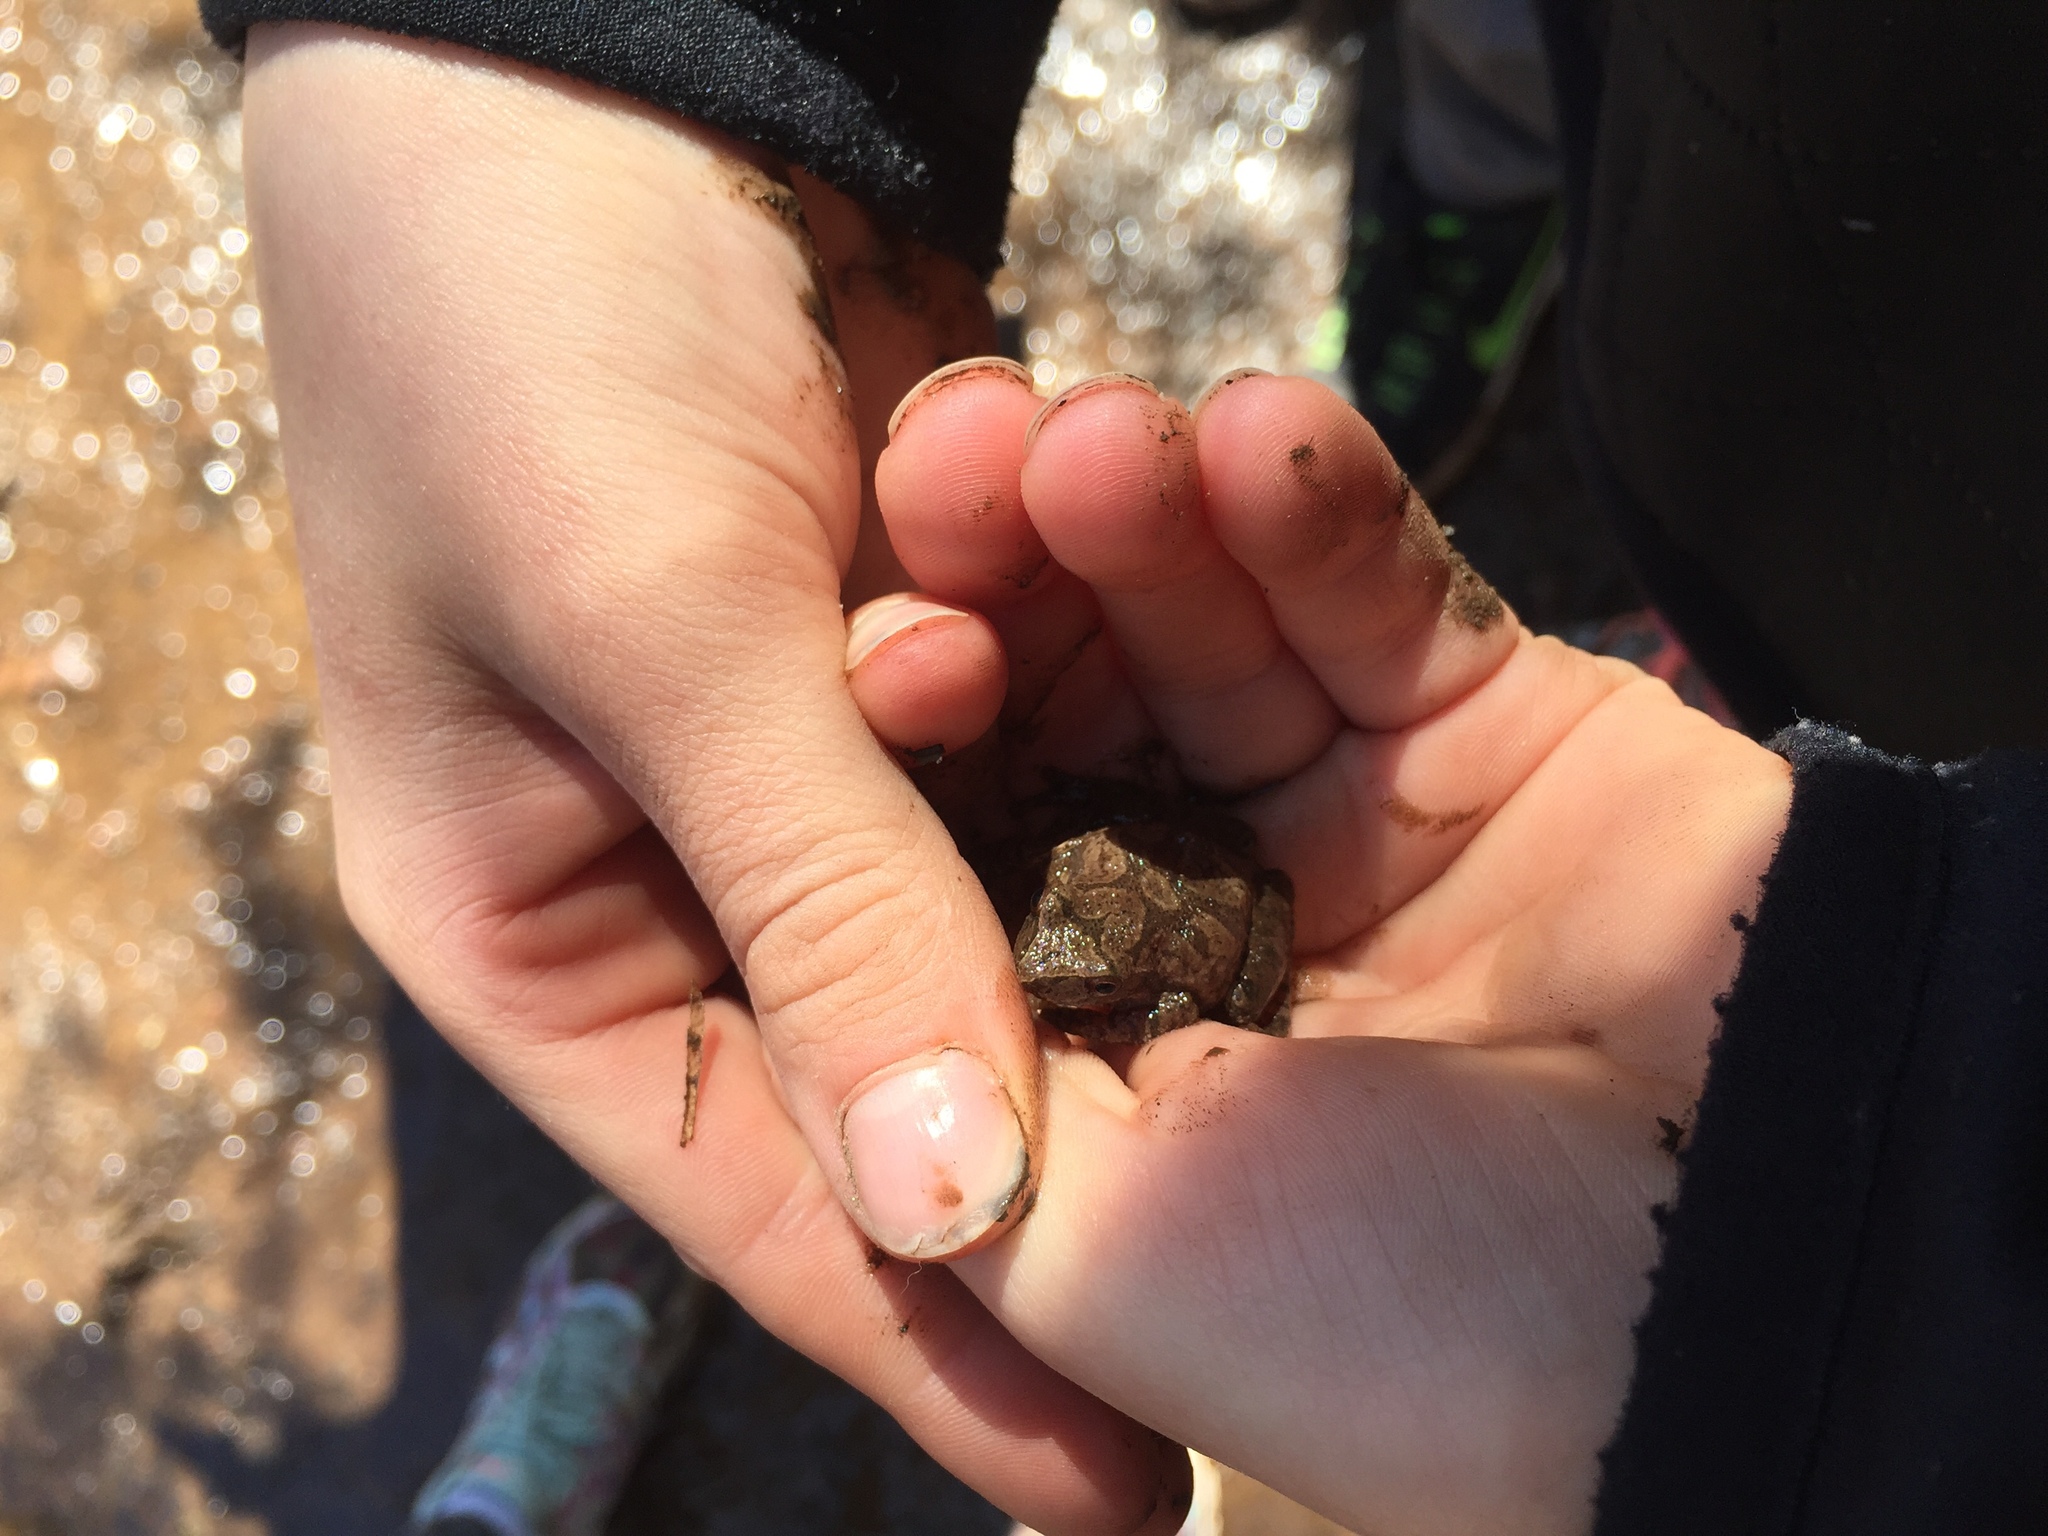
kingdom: Animalia
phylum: Chordata
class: Amphibia
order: Anura
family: Hylidae
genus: Pseudacris
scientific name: Pseudacris crucifer
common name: Spring peeper
